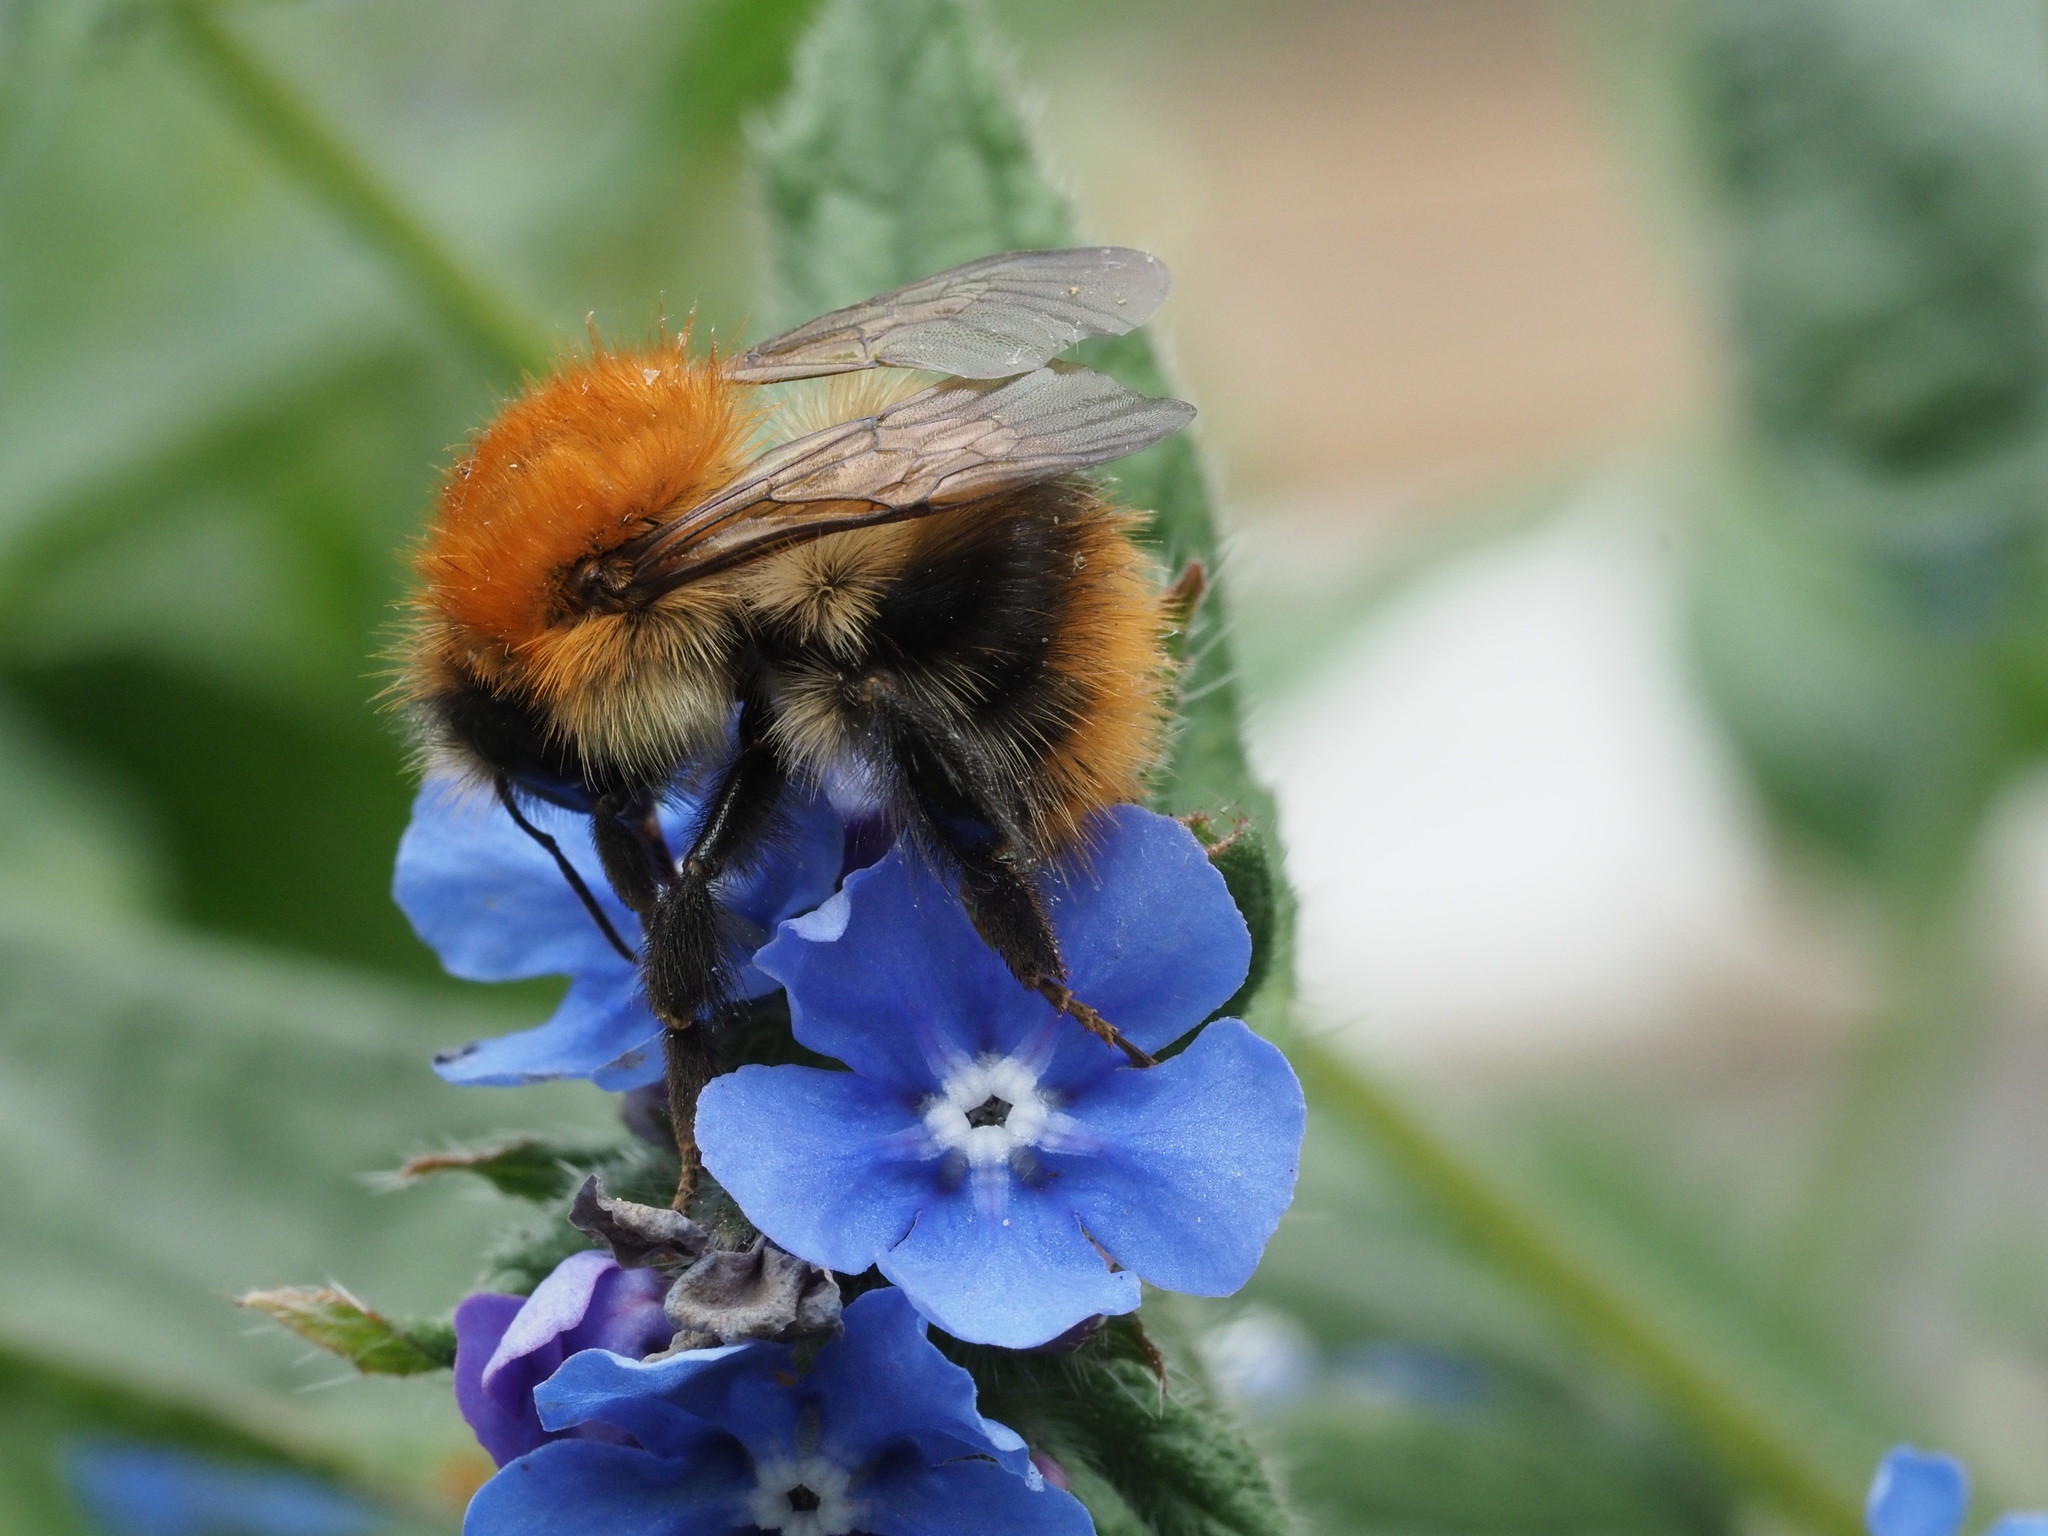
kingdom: Animalia
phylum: Arthropoda
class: Insecta
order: Hymenoptera
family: Apidae
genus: Bombus
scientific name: Bombus pascuorum
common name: Common carder bee
